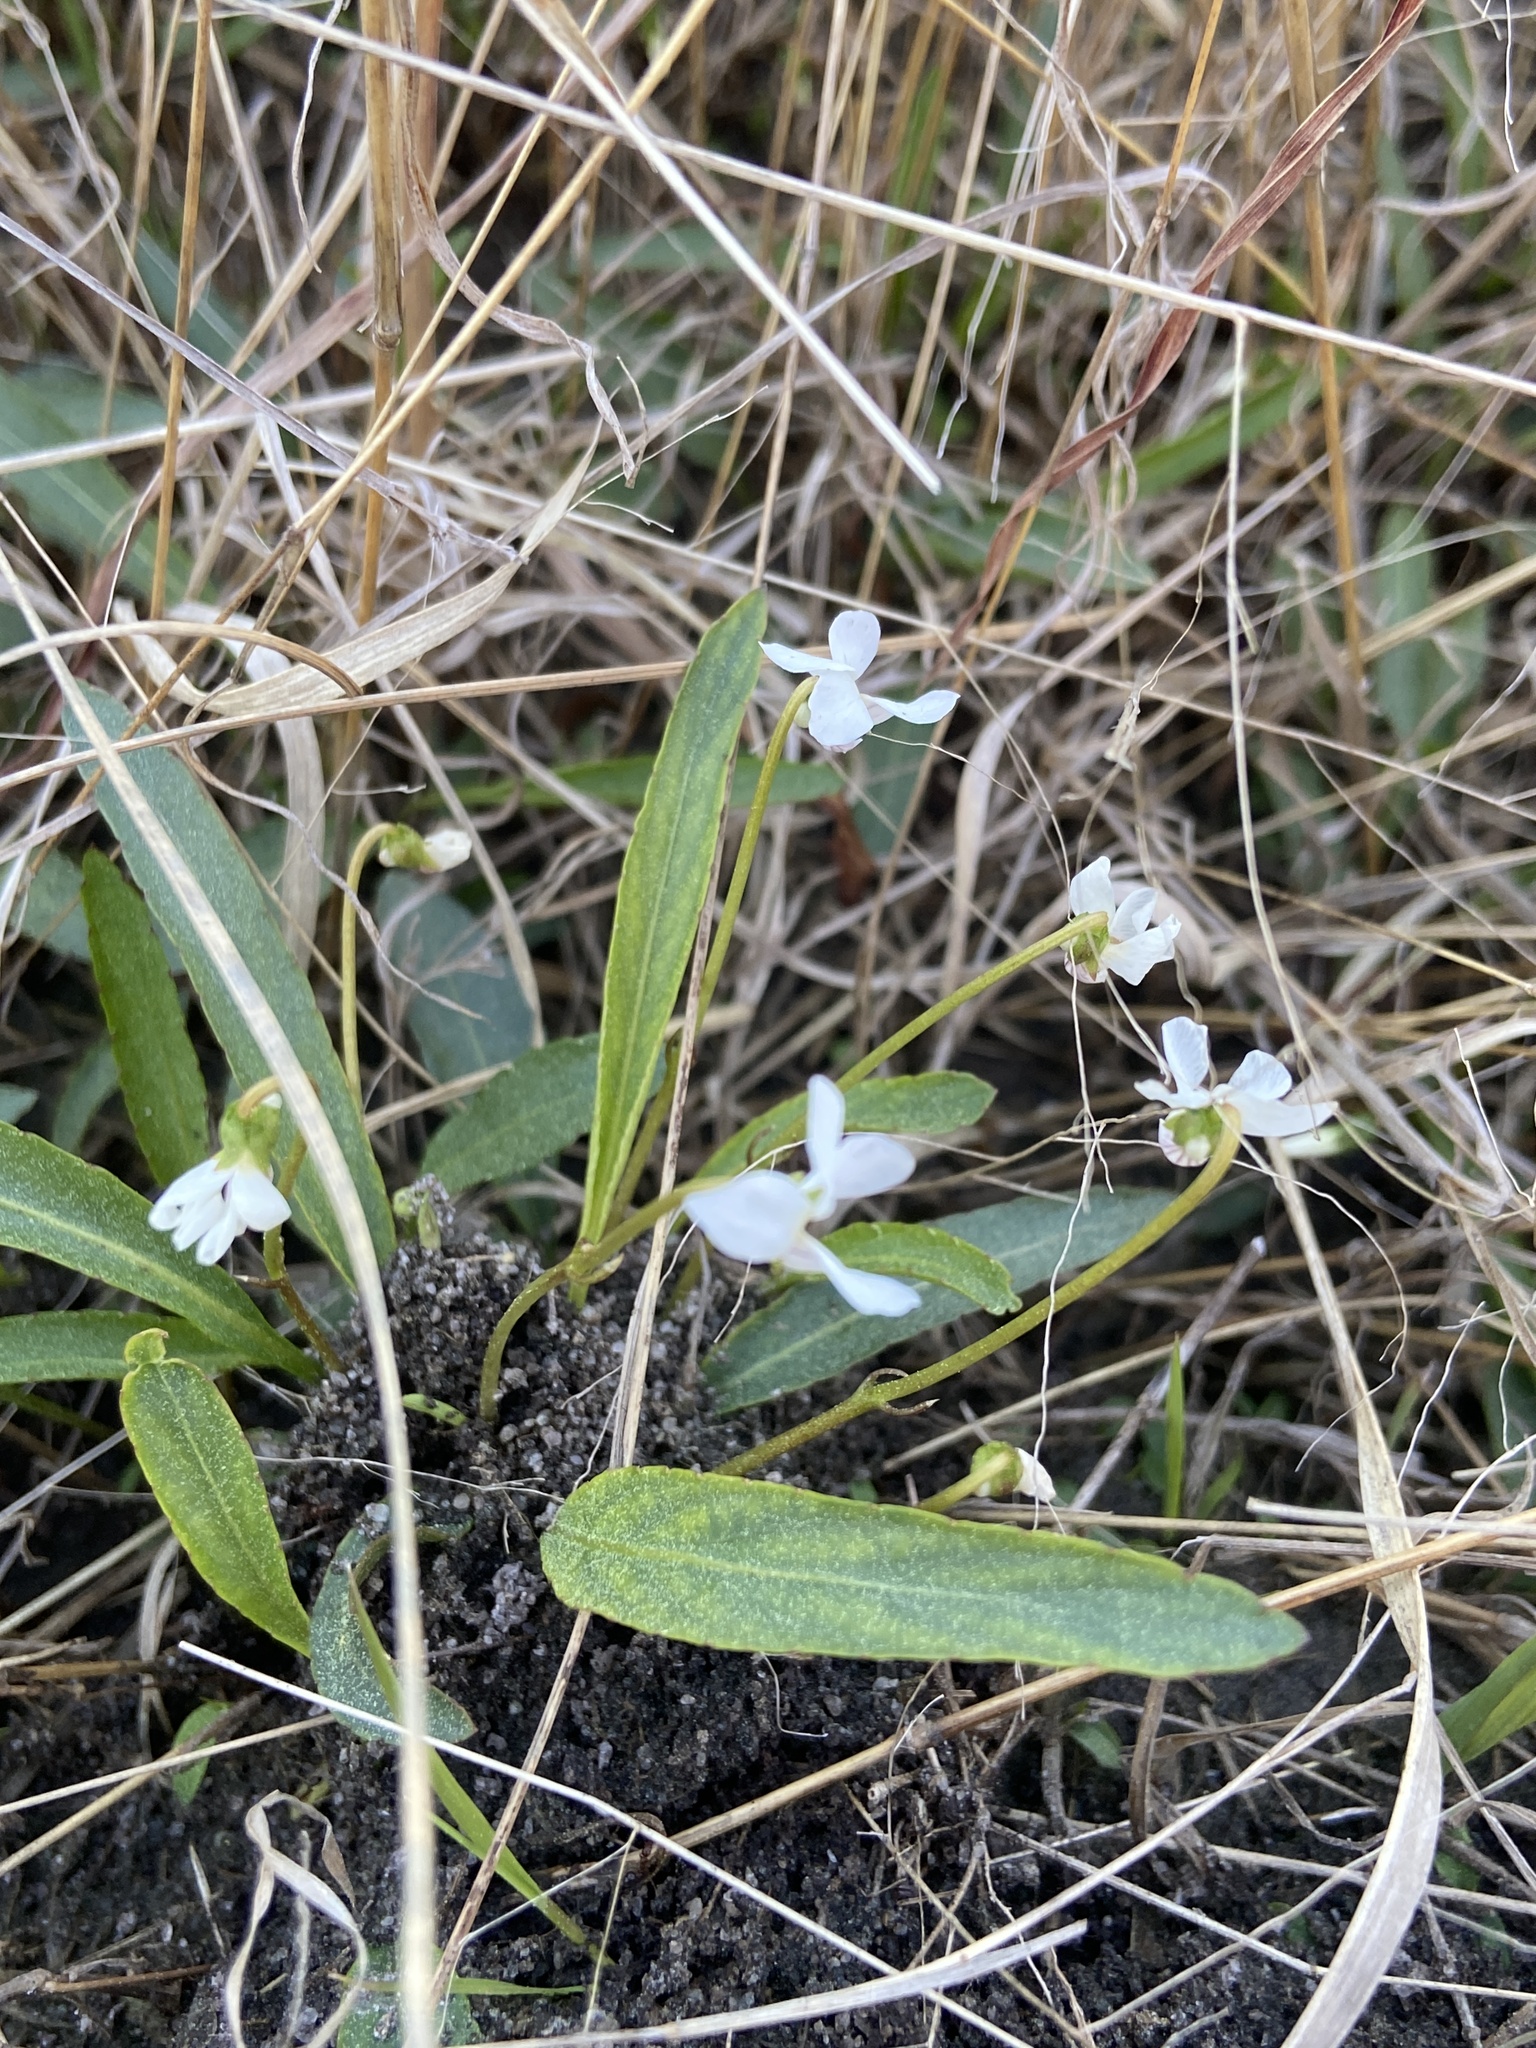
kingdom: Plantae
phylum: Tracheophyta
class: Magnoliopsida
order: Malpighiales
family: Violaceae
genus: Viola
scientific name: Viola lanceolata
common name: Bog white violet
